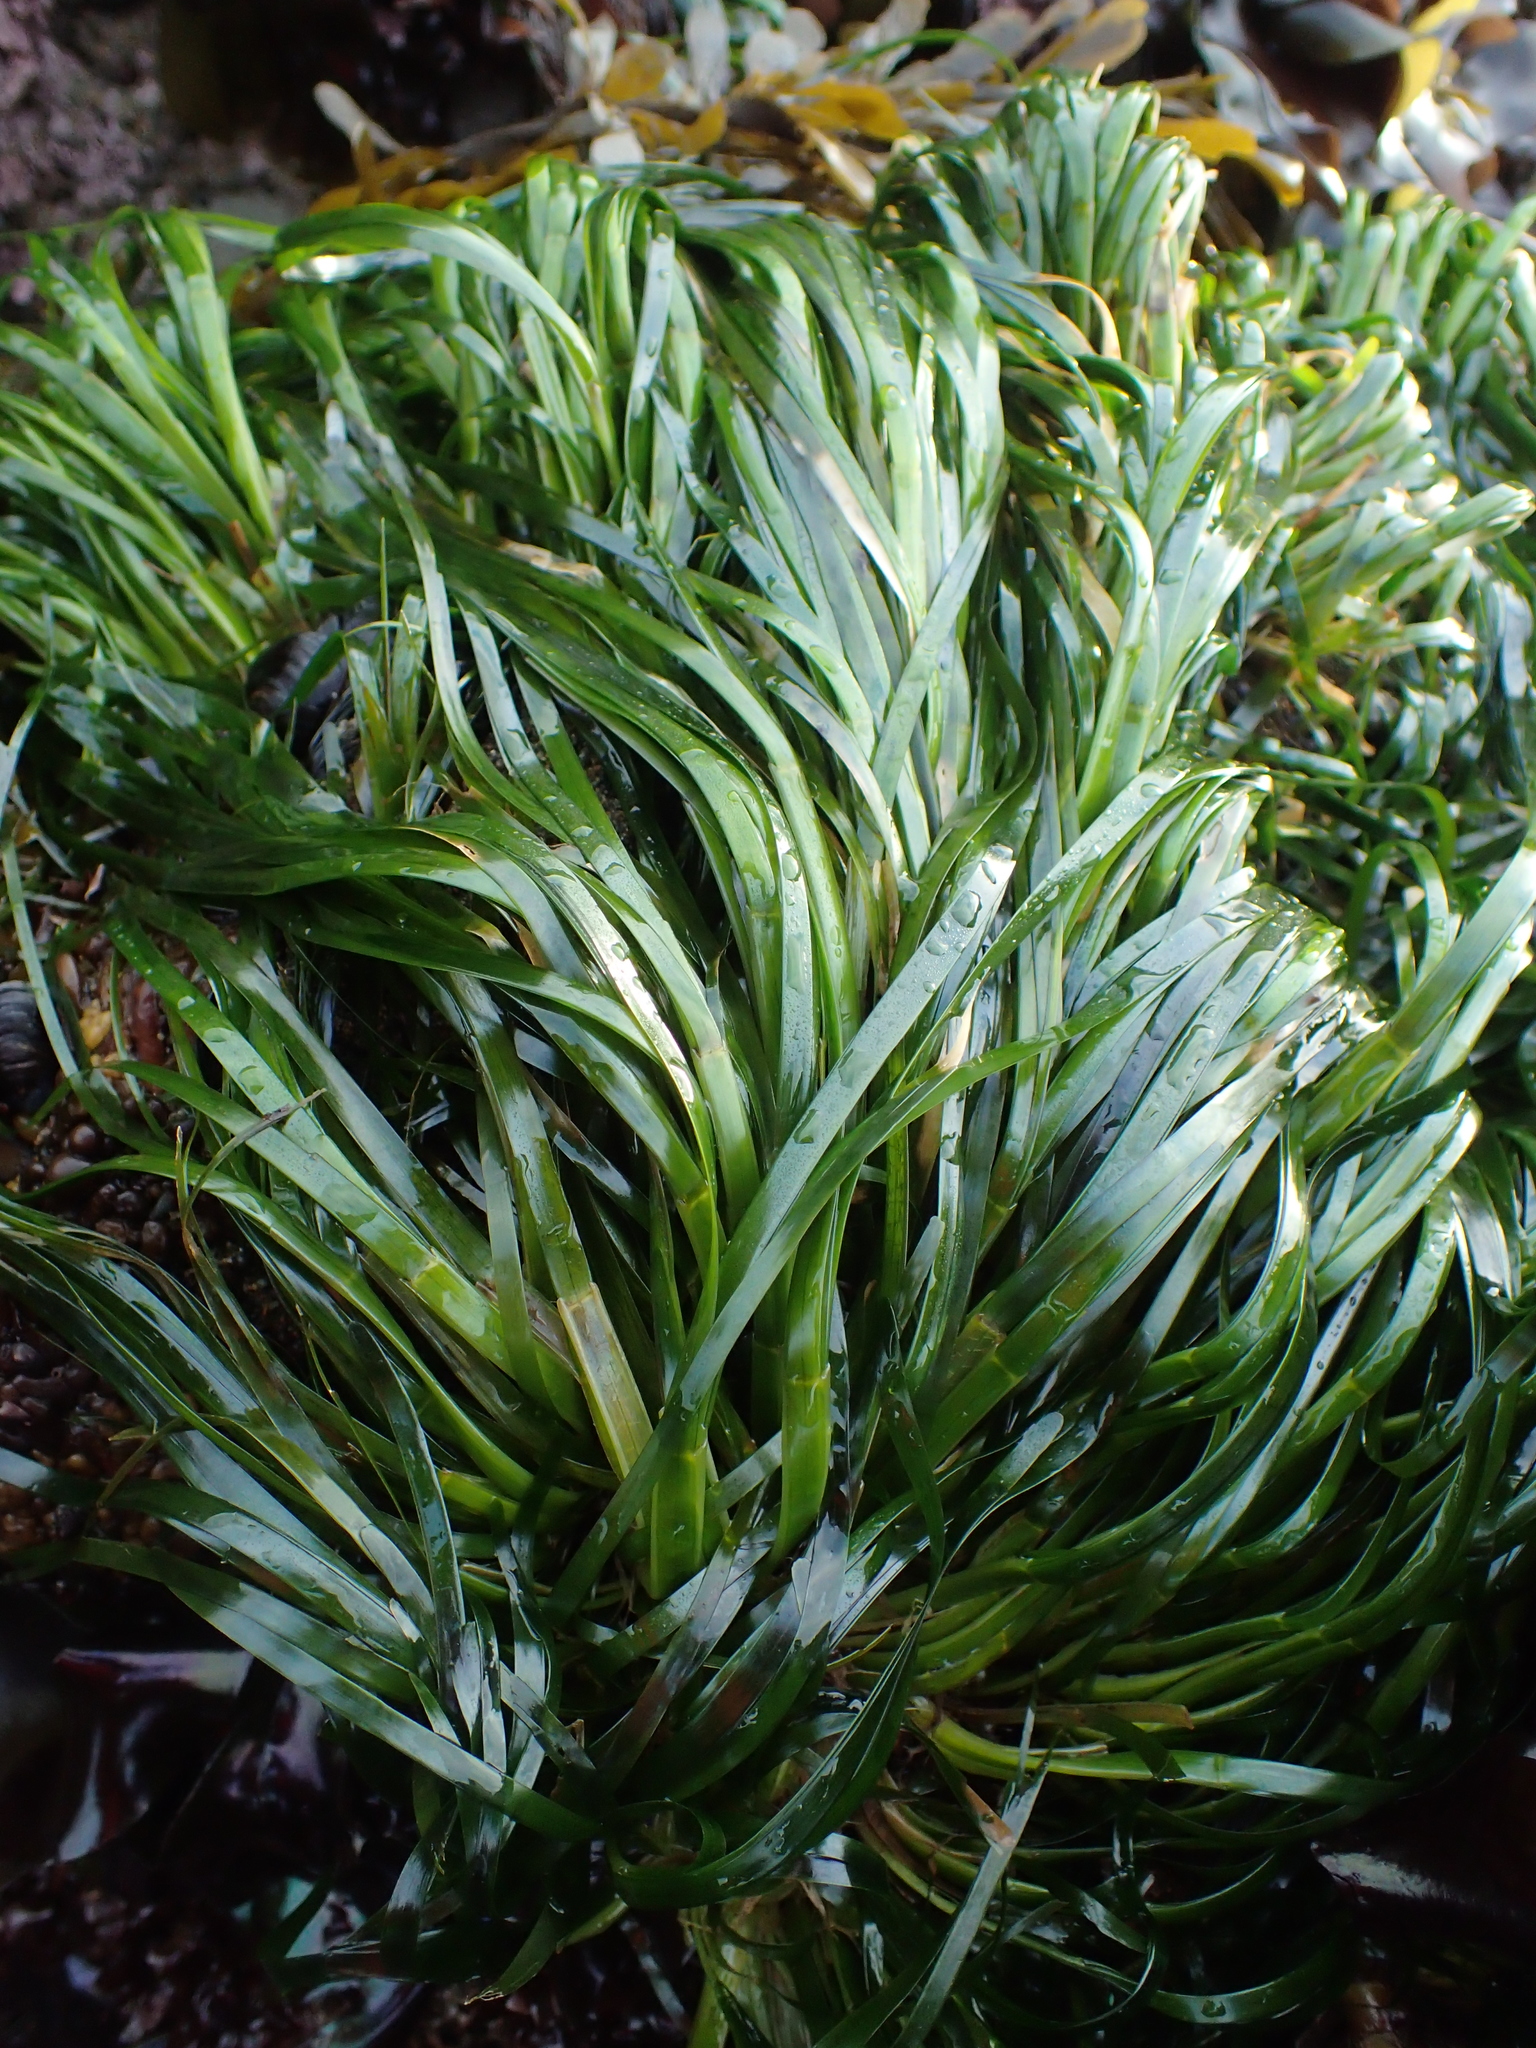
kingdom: Plantae
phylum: Tracheophyta
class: Liliopsida
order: Alismatales
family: Zosteraceae
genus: Phyllospadix
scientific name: Phyllospadix scouleri
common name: Species code: ps
